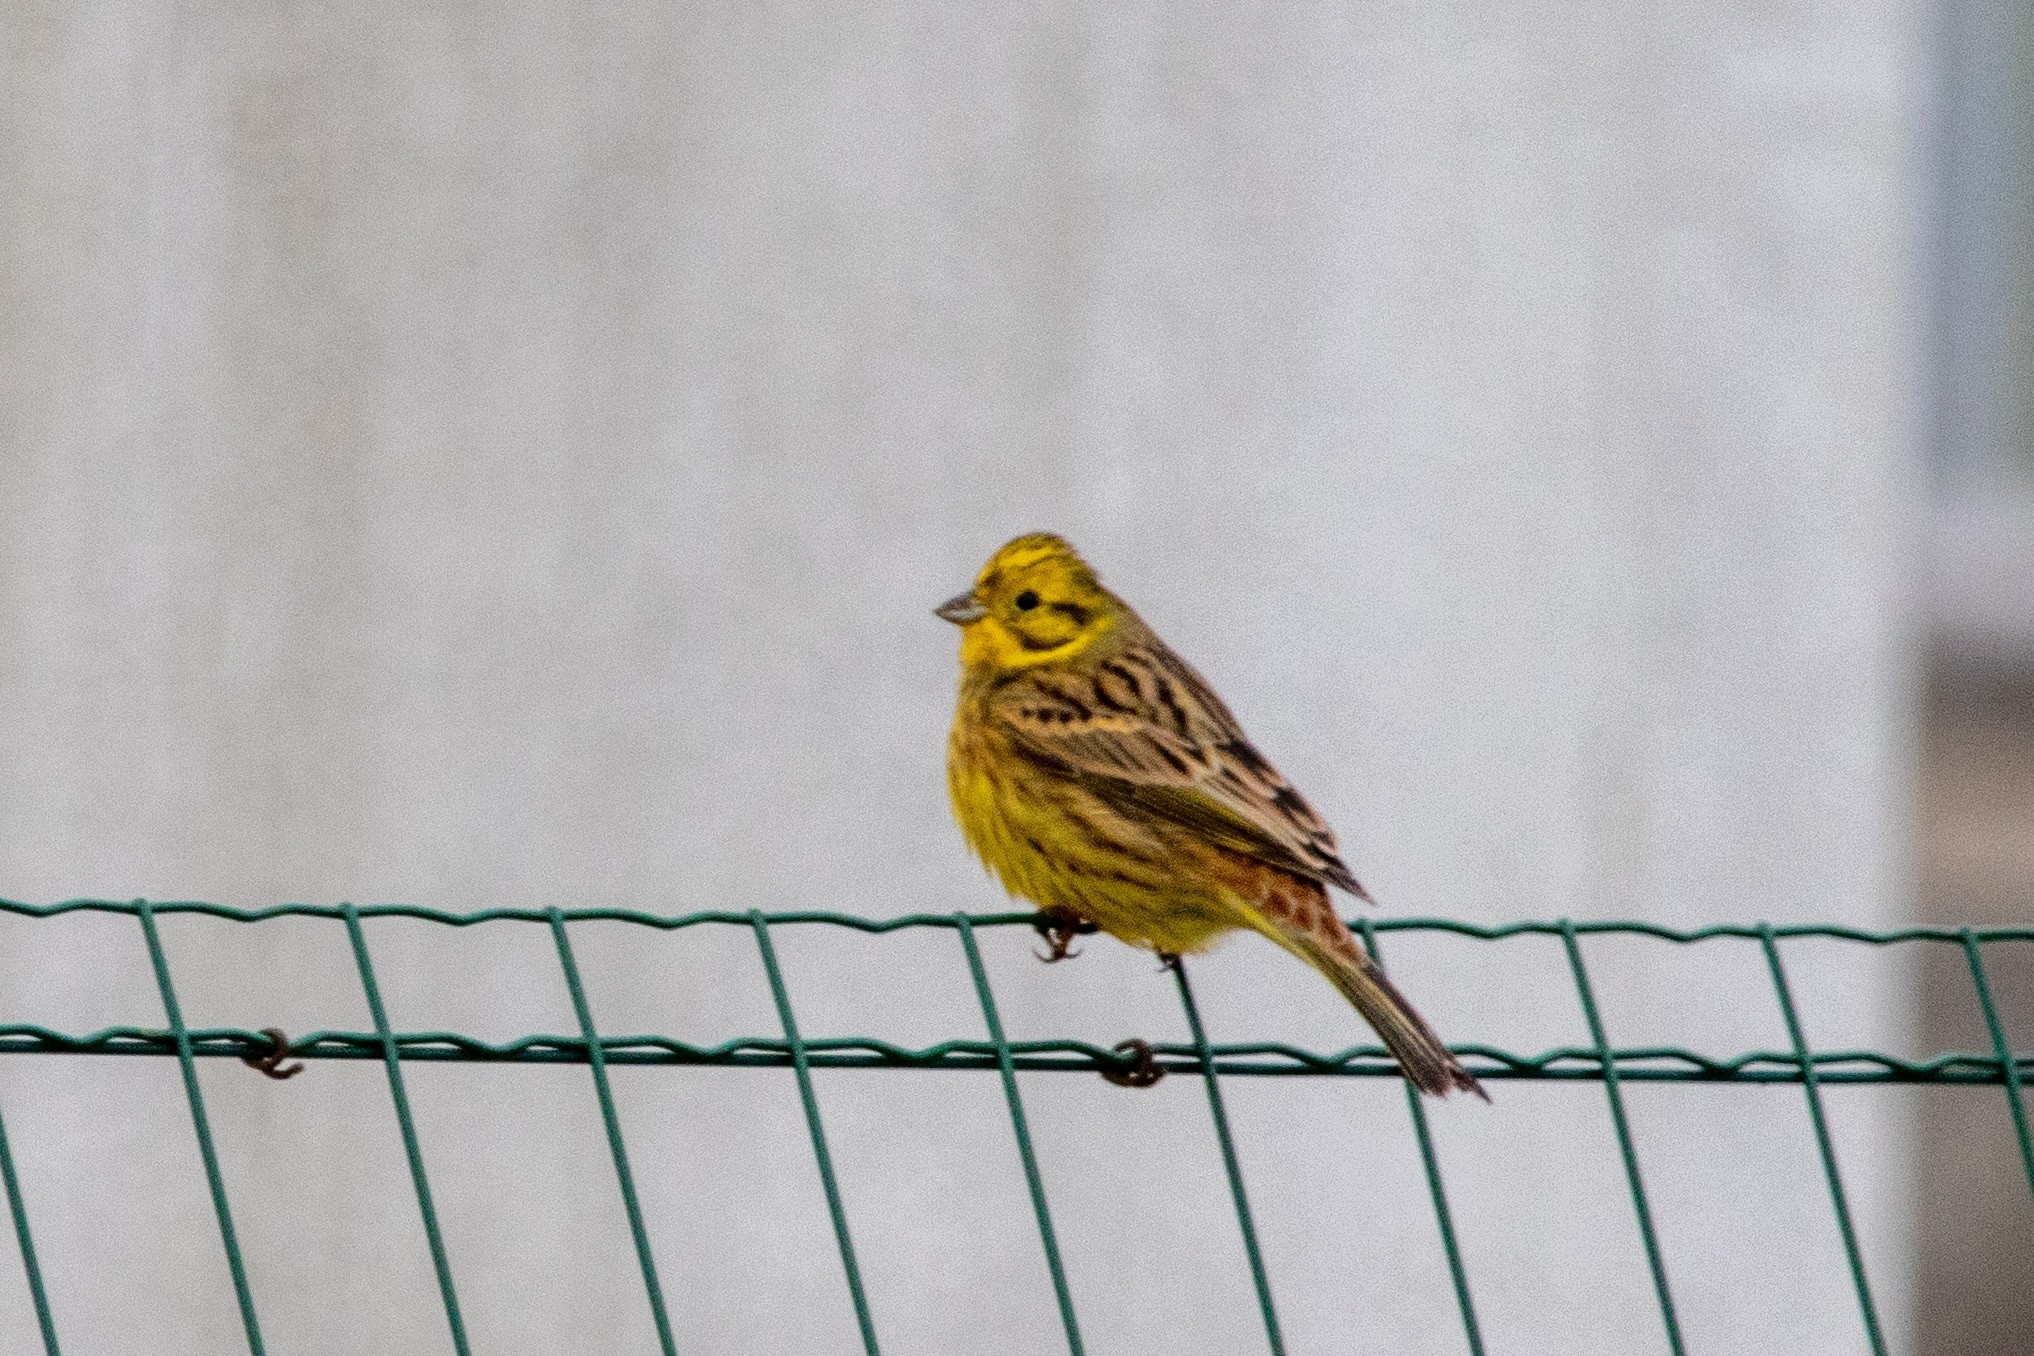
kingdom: Animalia
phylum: Chordata
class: Aves
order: Passeriformes
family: Emberizidae
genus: Emberiza
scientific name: Emberiza citrinella
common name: Yellowhammer
